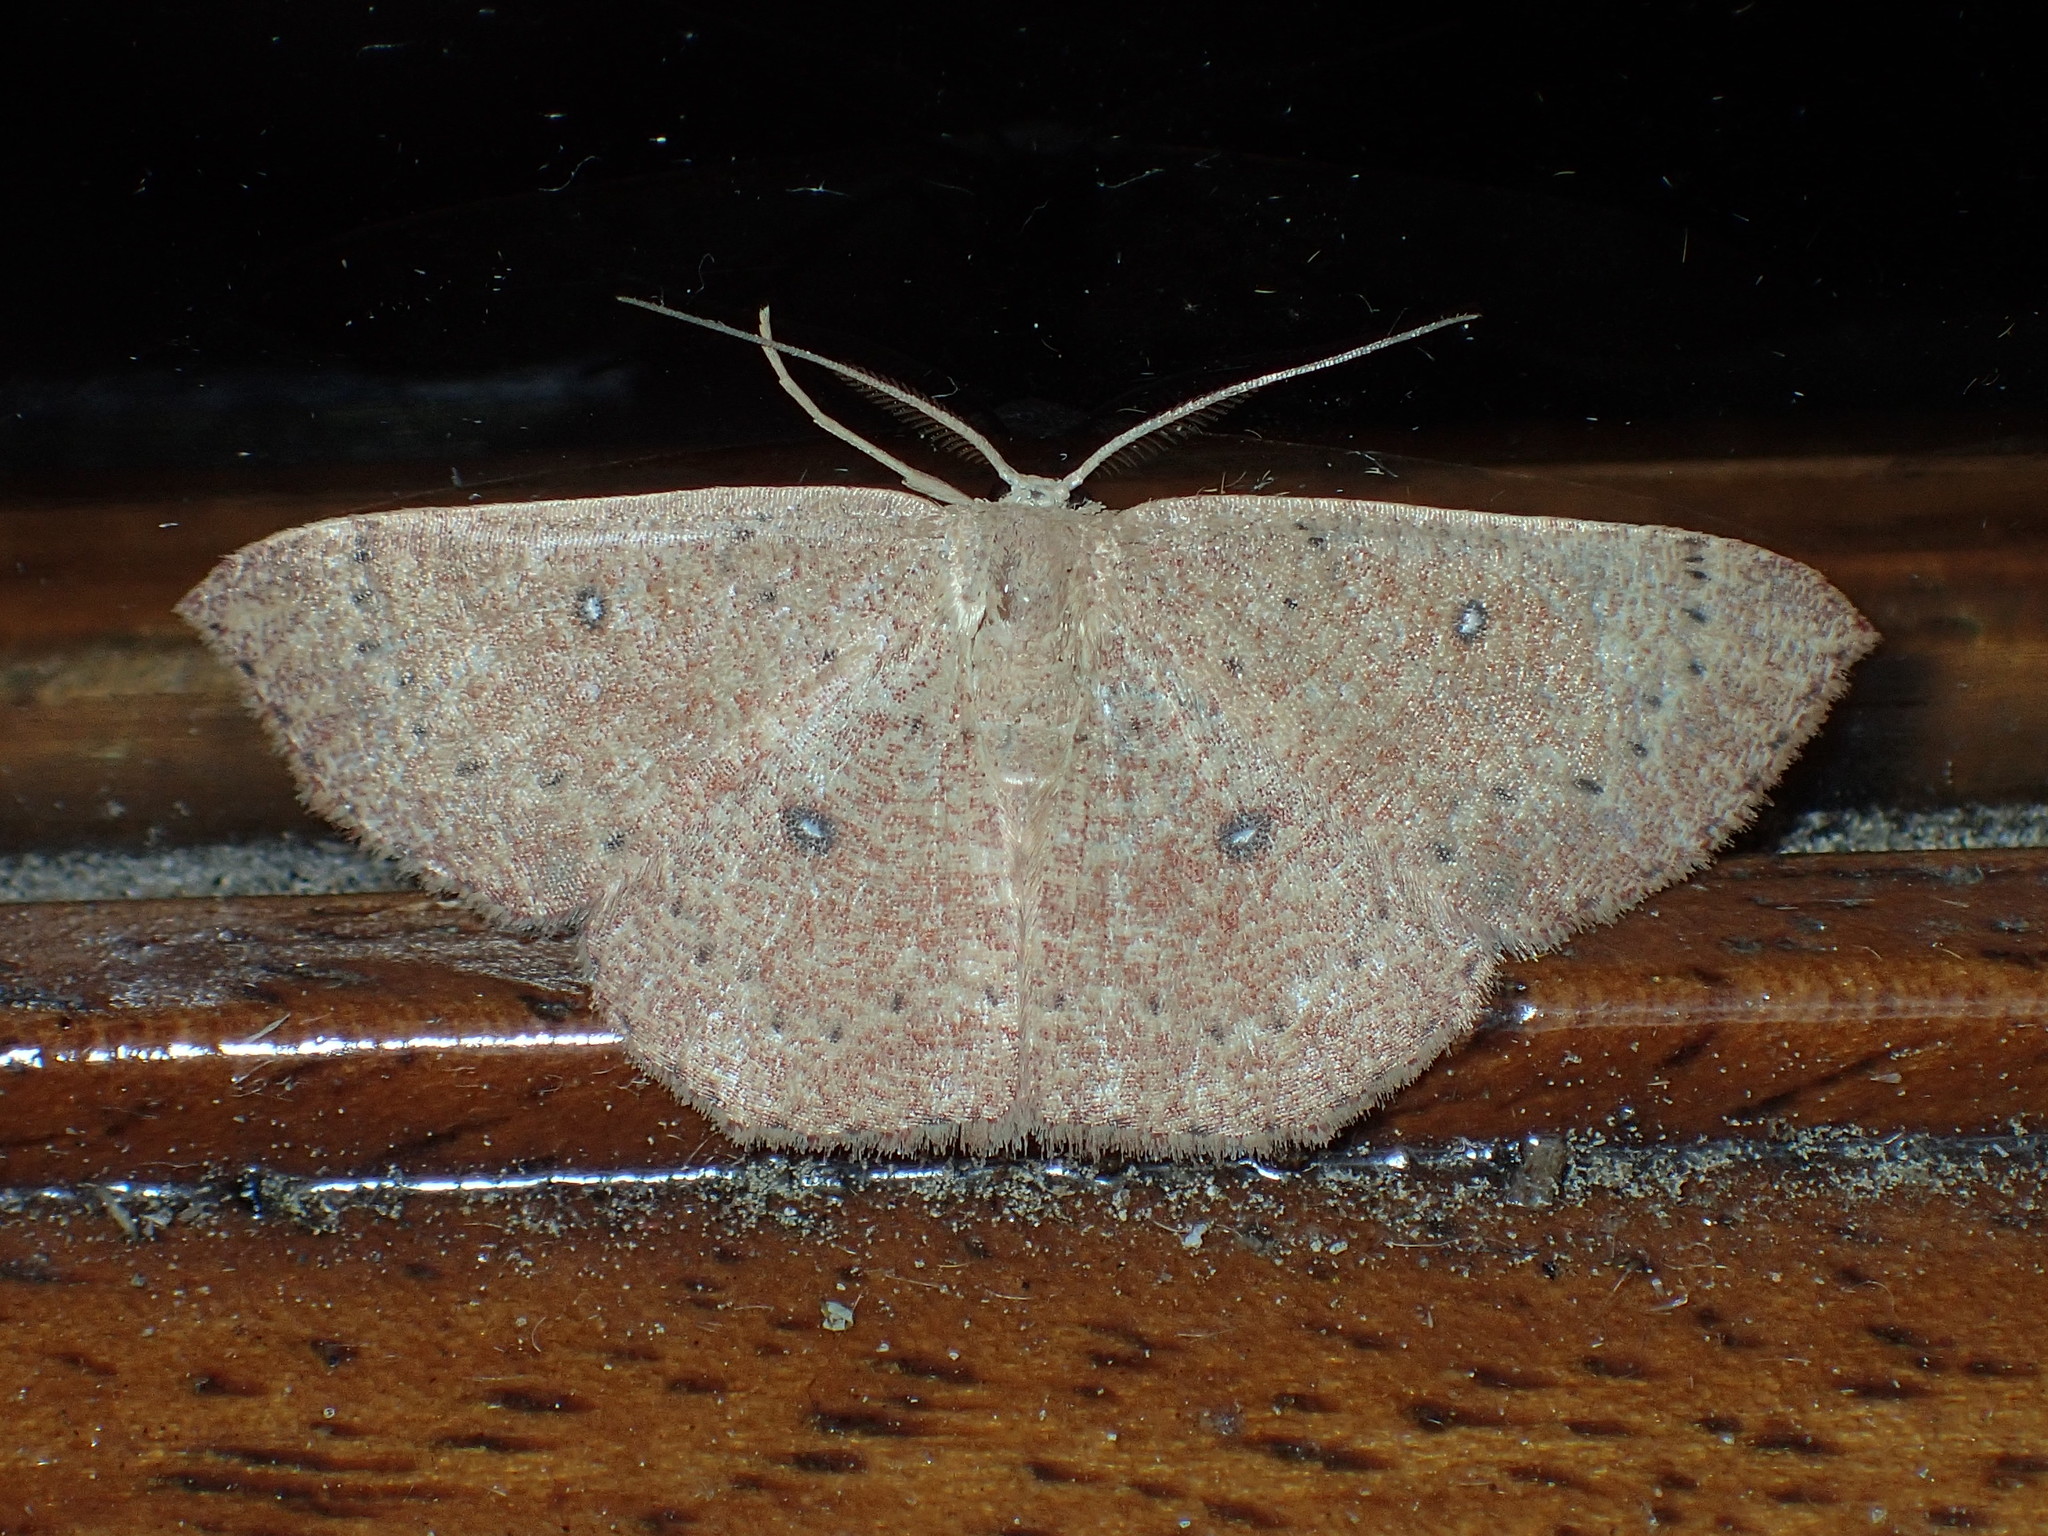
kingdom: Animalia
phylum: Arthropoda
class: Insecta
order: Lepidoptera
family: Geometridae
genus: Cyclophora
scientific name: Cyclophora packardi
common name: Packard's wave
